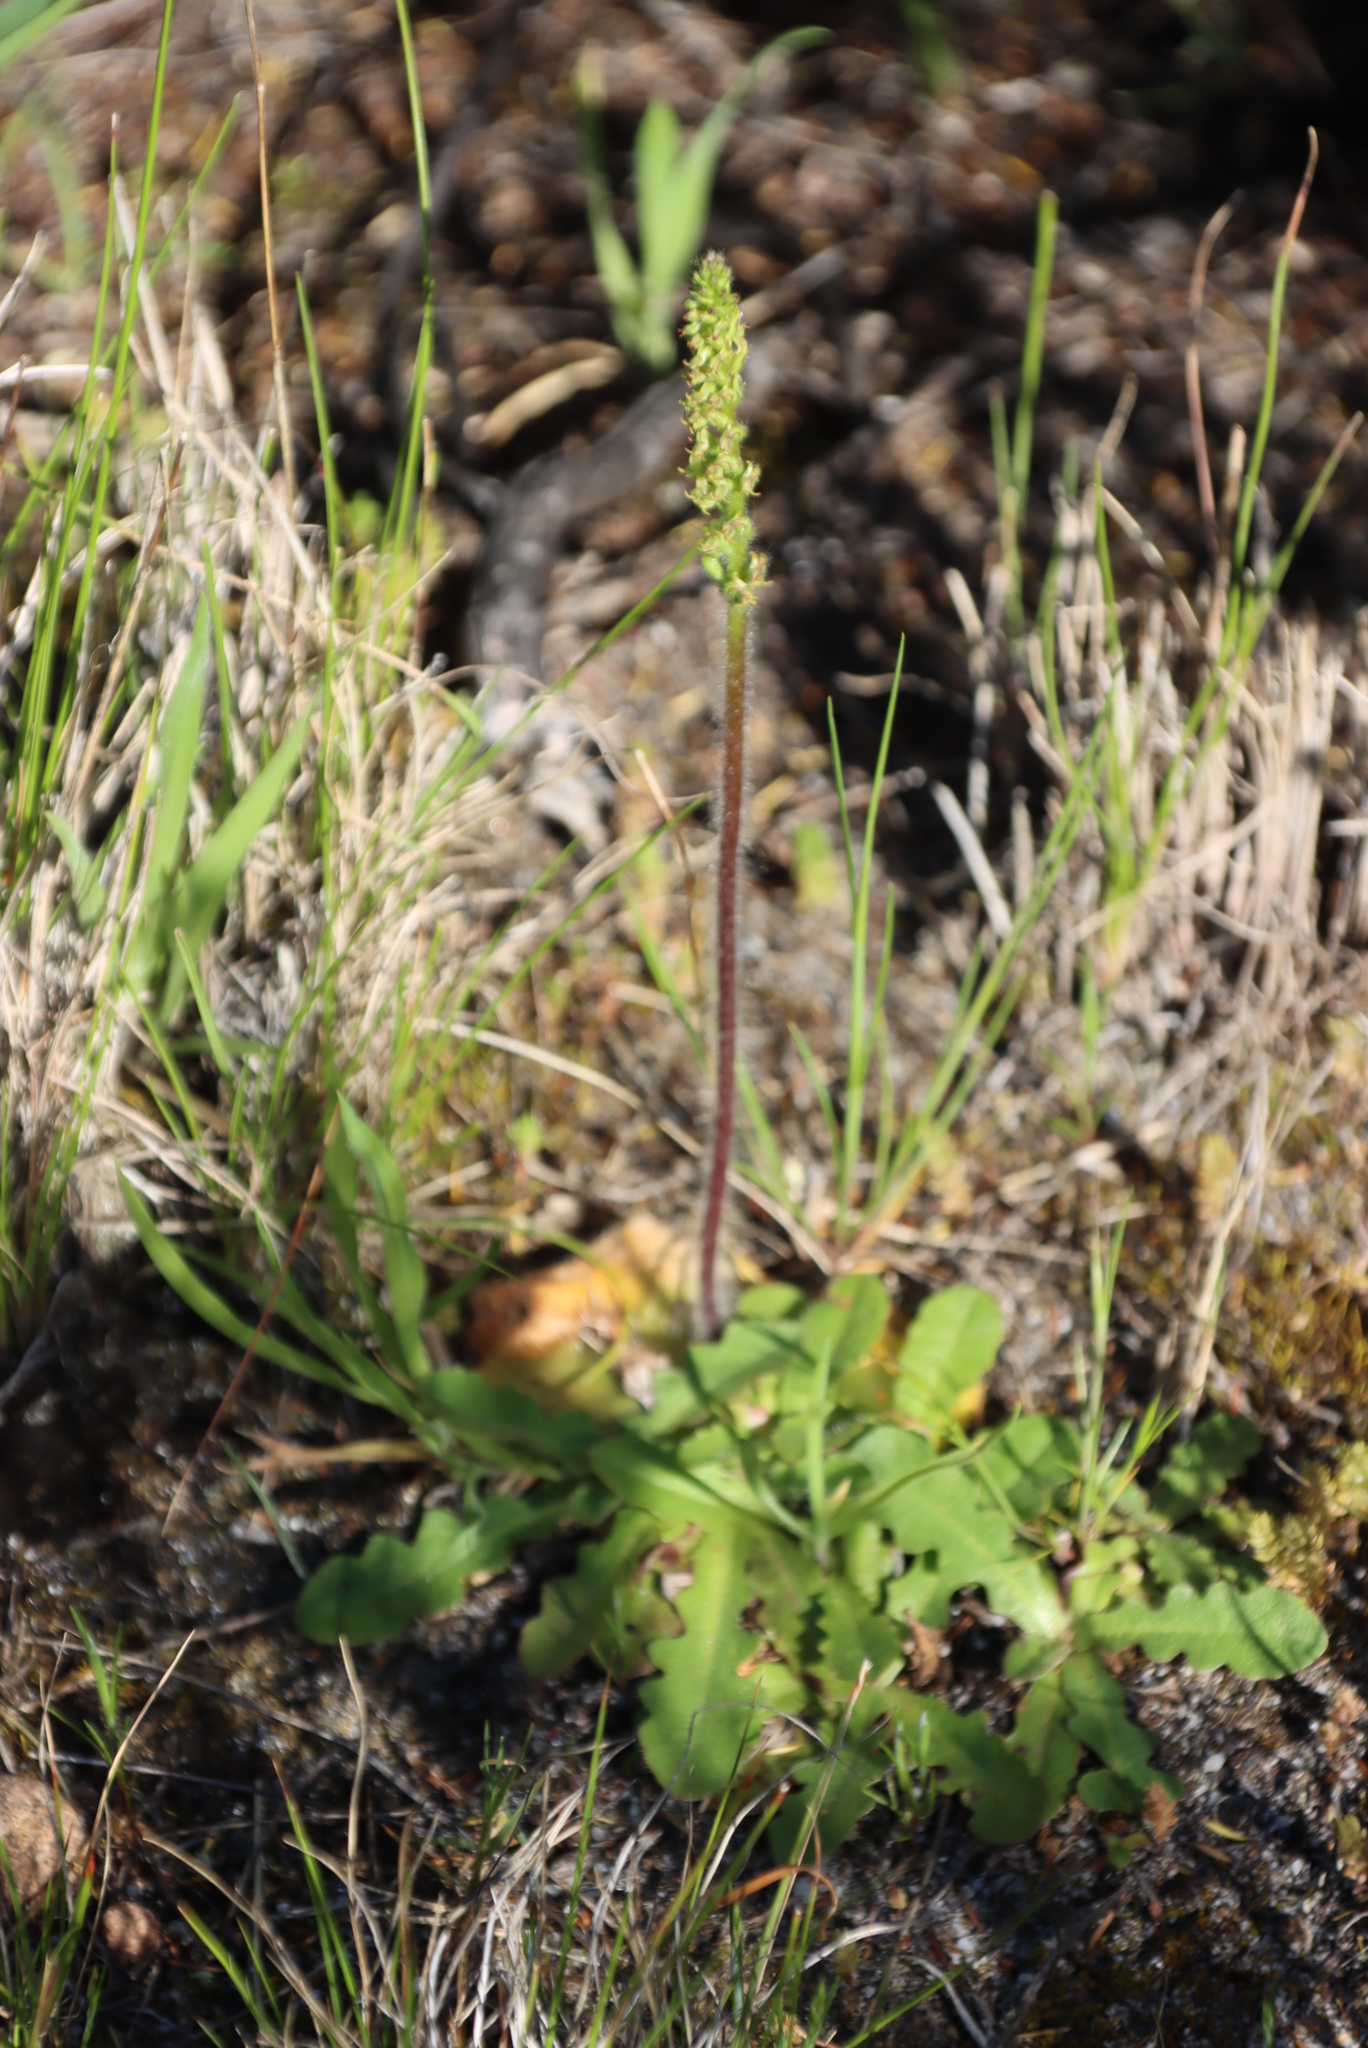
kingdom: Plantae
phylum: Tracheophyta
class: Magnoliopsida
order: Asterales
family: Asteraceae
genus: Hypochaeris
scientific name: Hypochaeris radicata
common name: Flatweed
